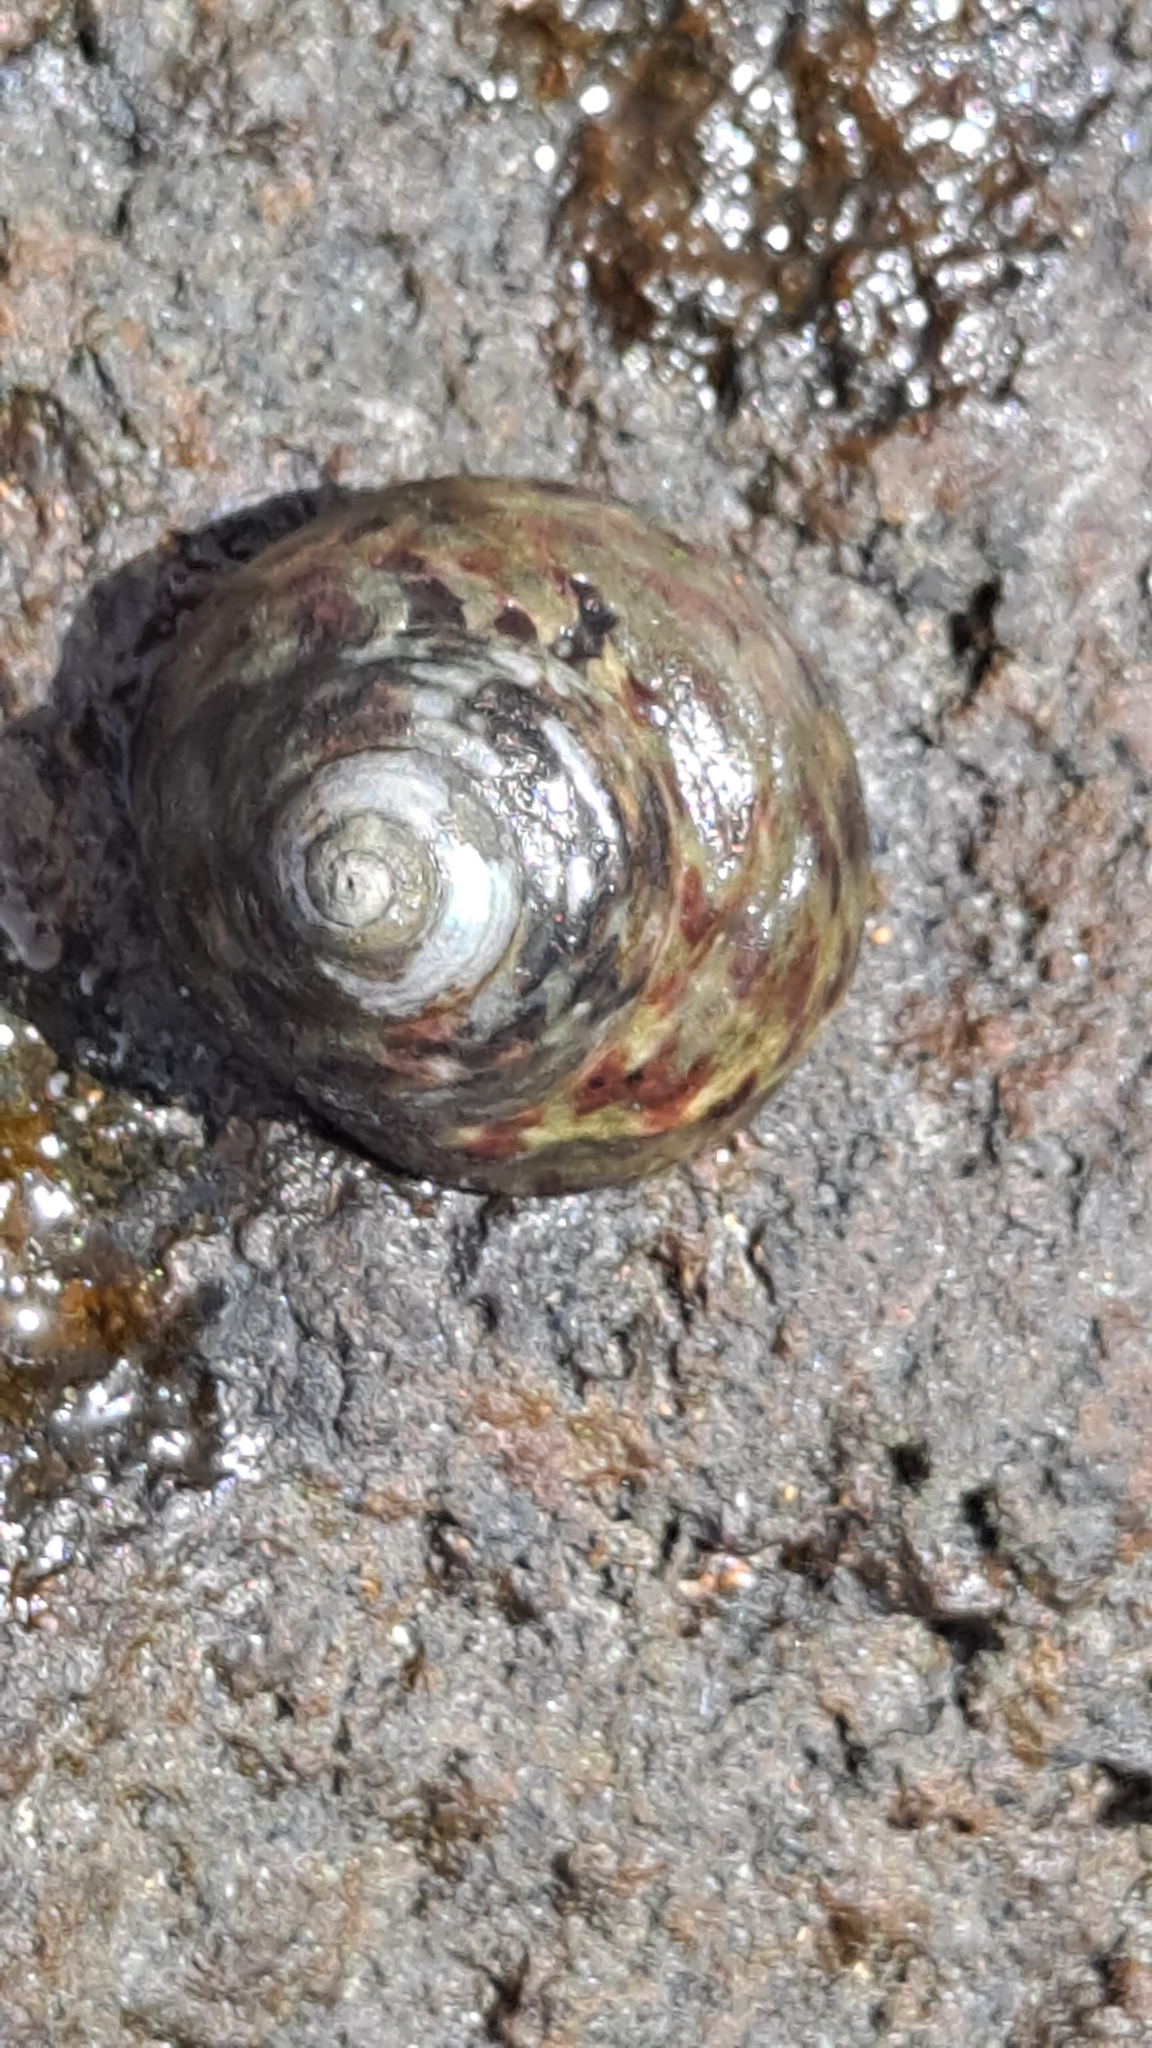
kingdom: Animalia
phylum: Mollusca
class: Gastropoda
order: Trochida
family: Trochidae
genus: Phorcus
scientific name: Phorcus sauciatus
